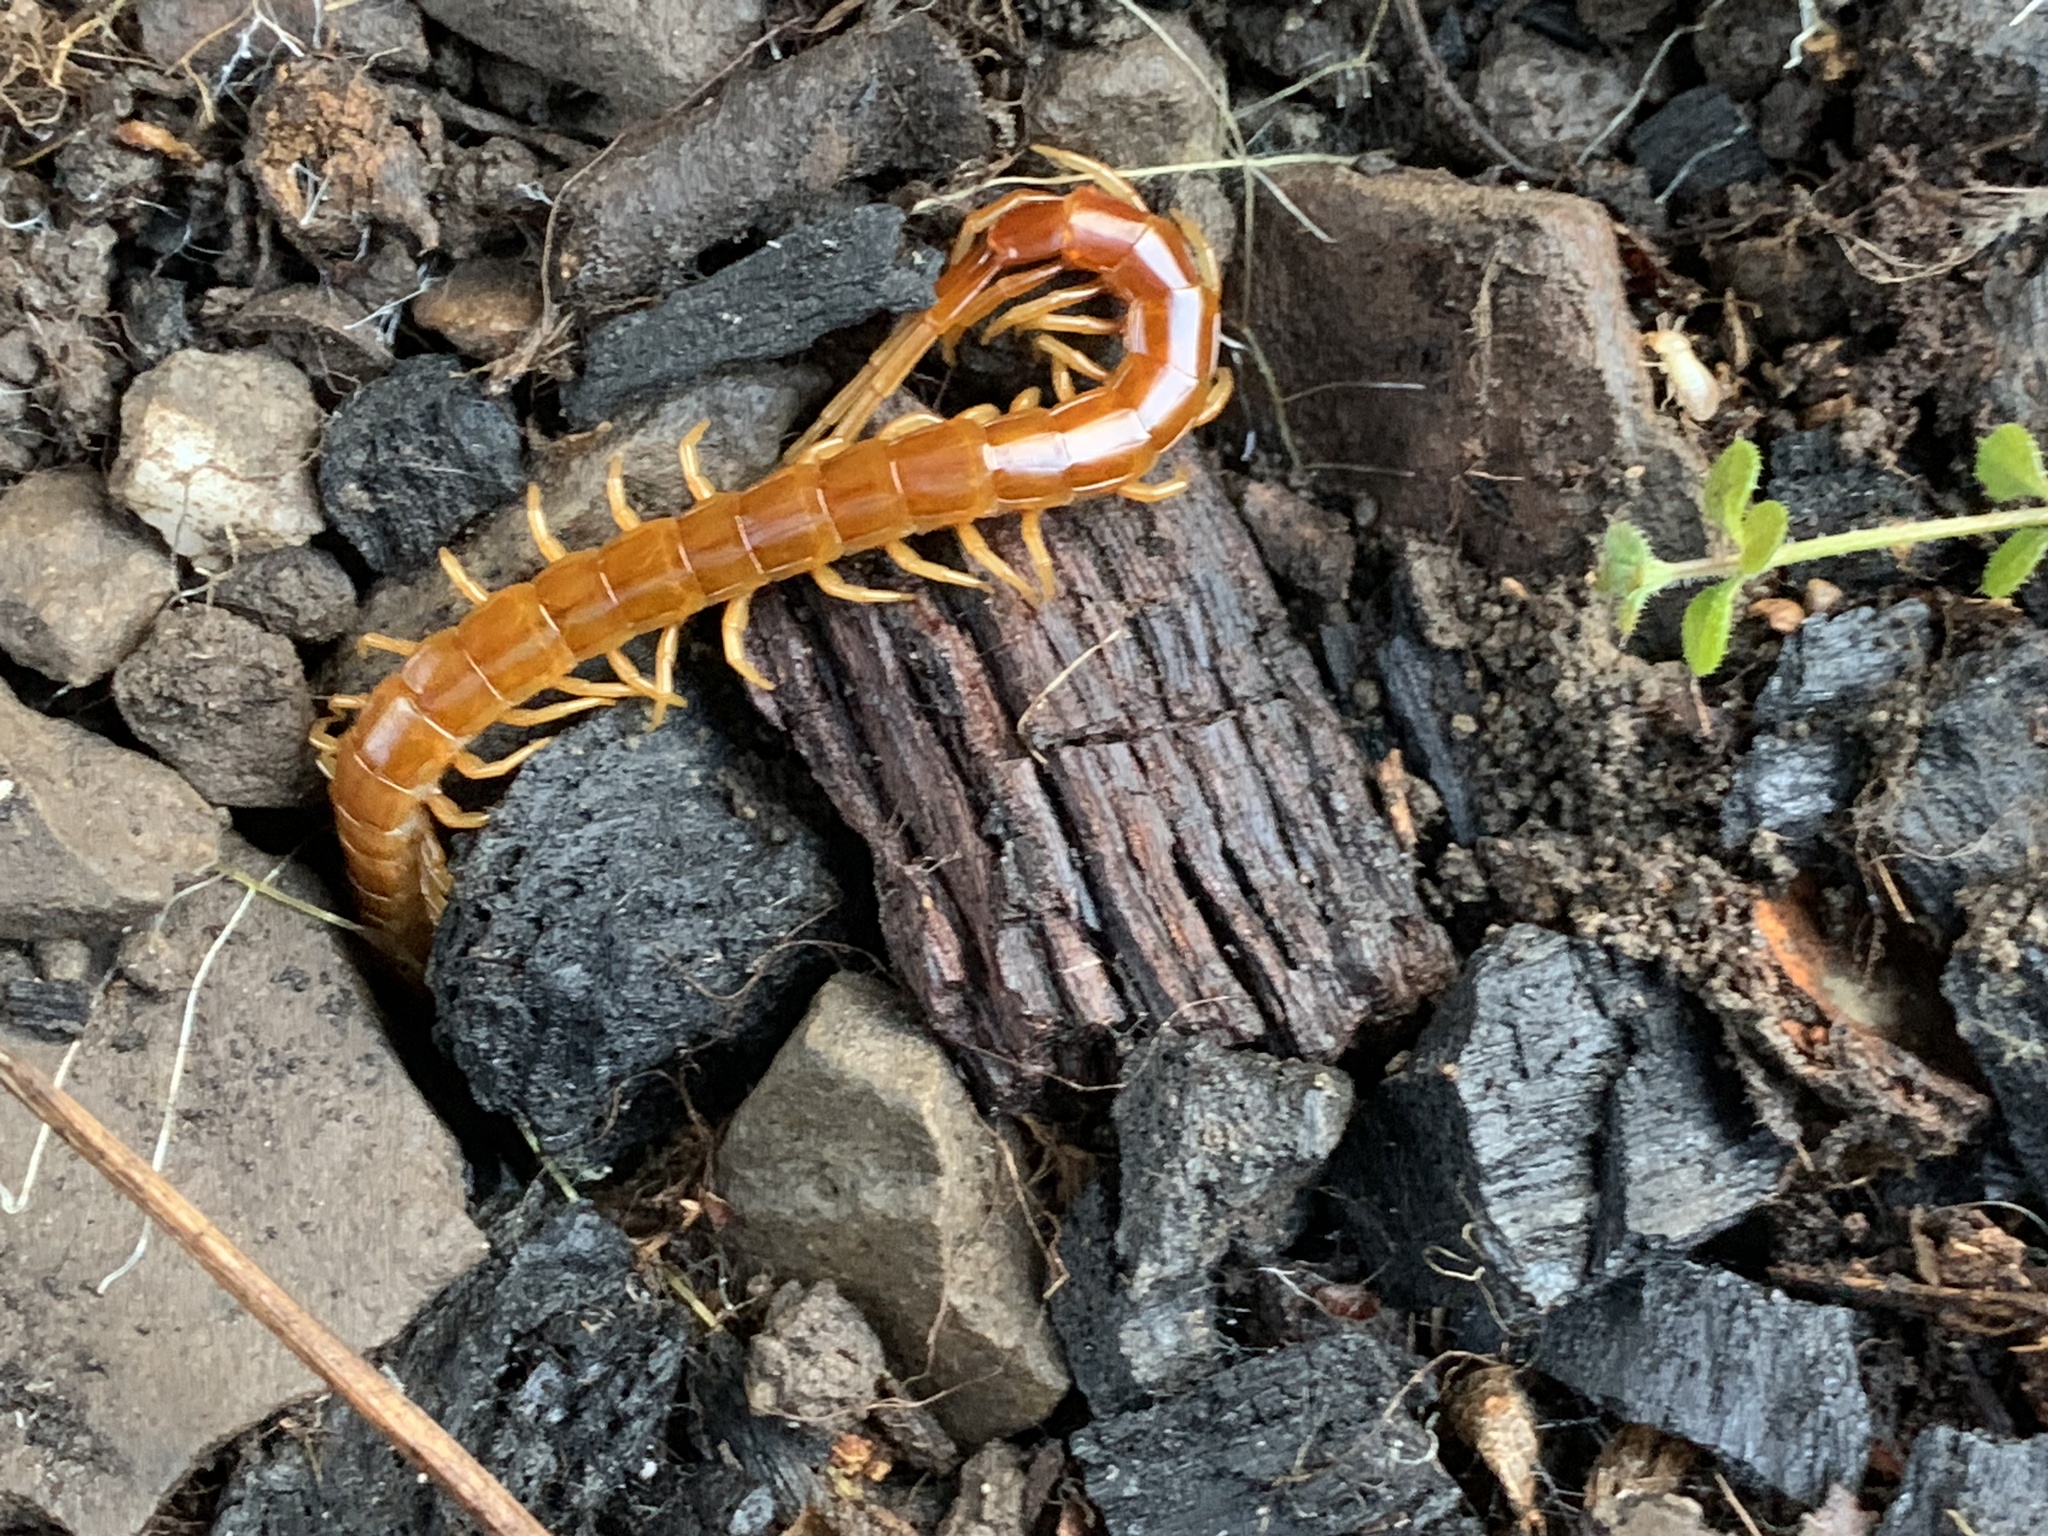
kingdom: Animalia
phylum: Arthropoda
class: Chilopoda
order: Scolopendromorpha
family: Scolopocryptopidae
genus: Scolopocryptops
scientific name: Scolopocryptops gracilis
